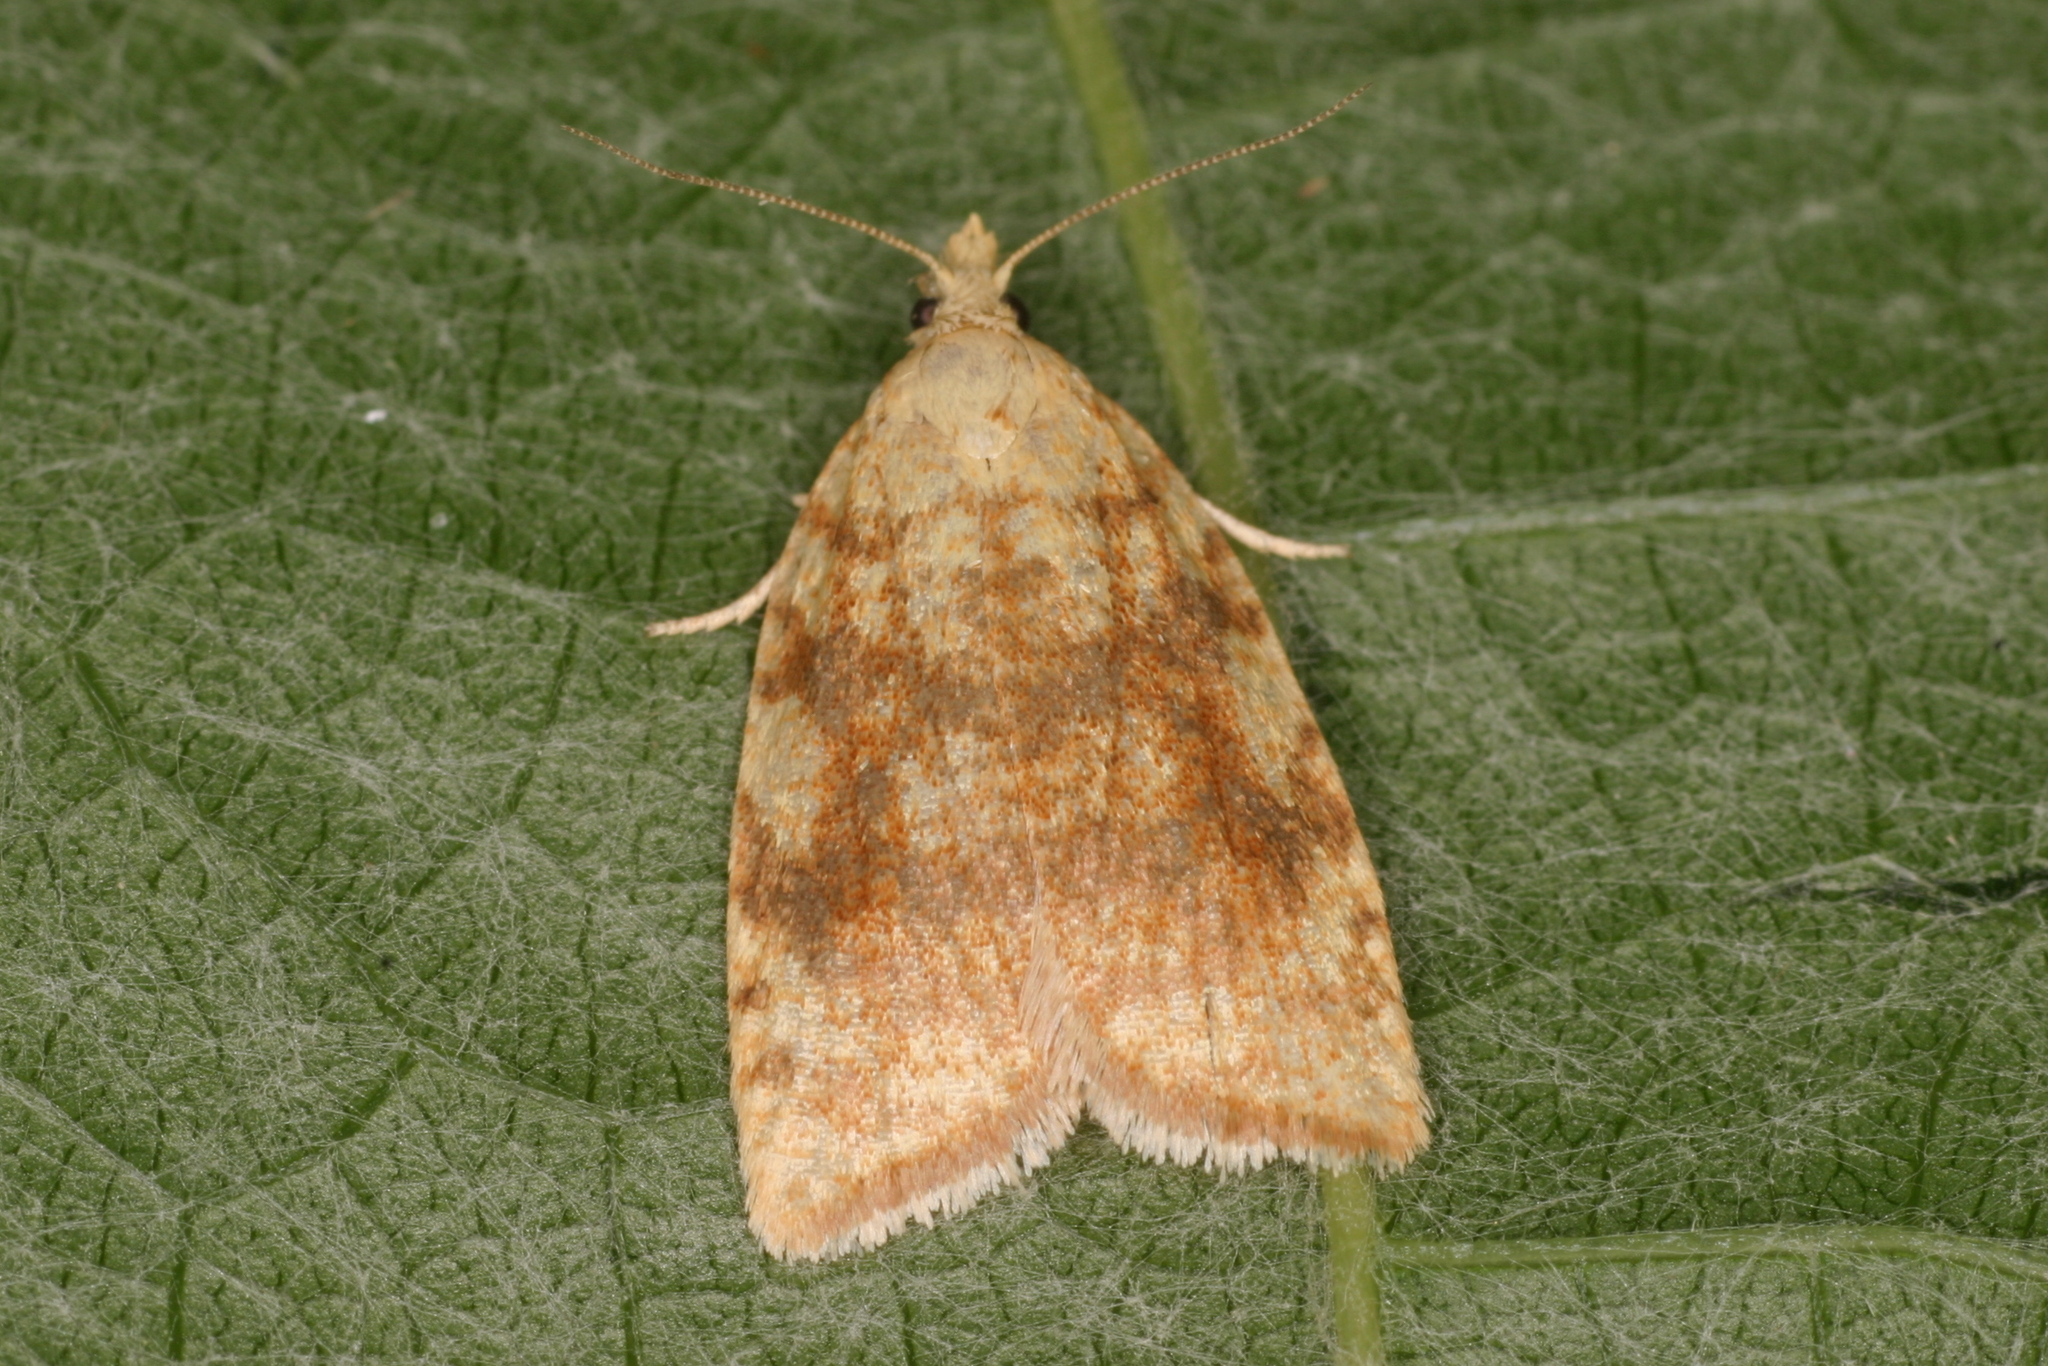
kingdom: Animalia
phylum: Arthropoda
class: Insecta
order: Lepidoptera
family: Tortricidae
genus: Aleimma
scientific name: Aleimma loeflingiana
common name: Yellow oak button
